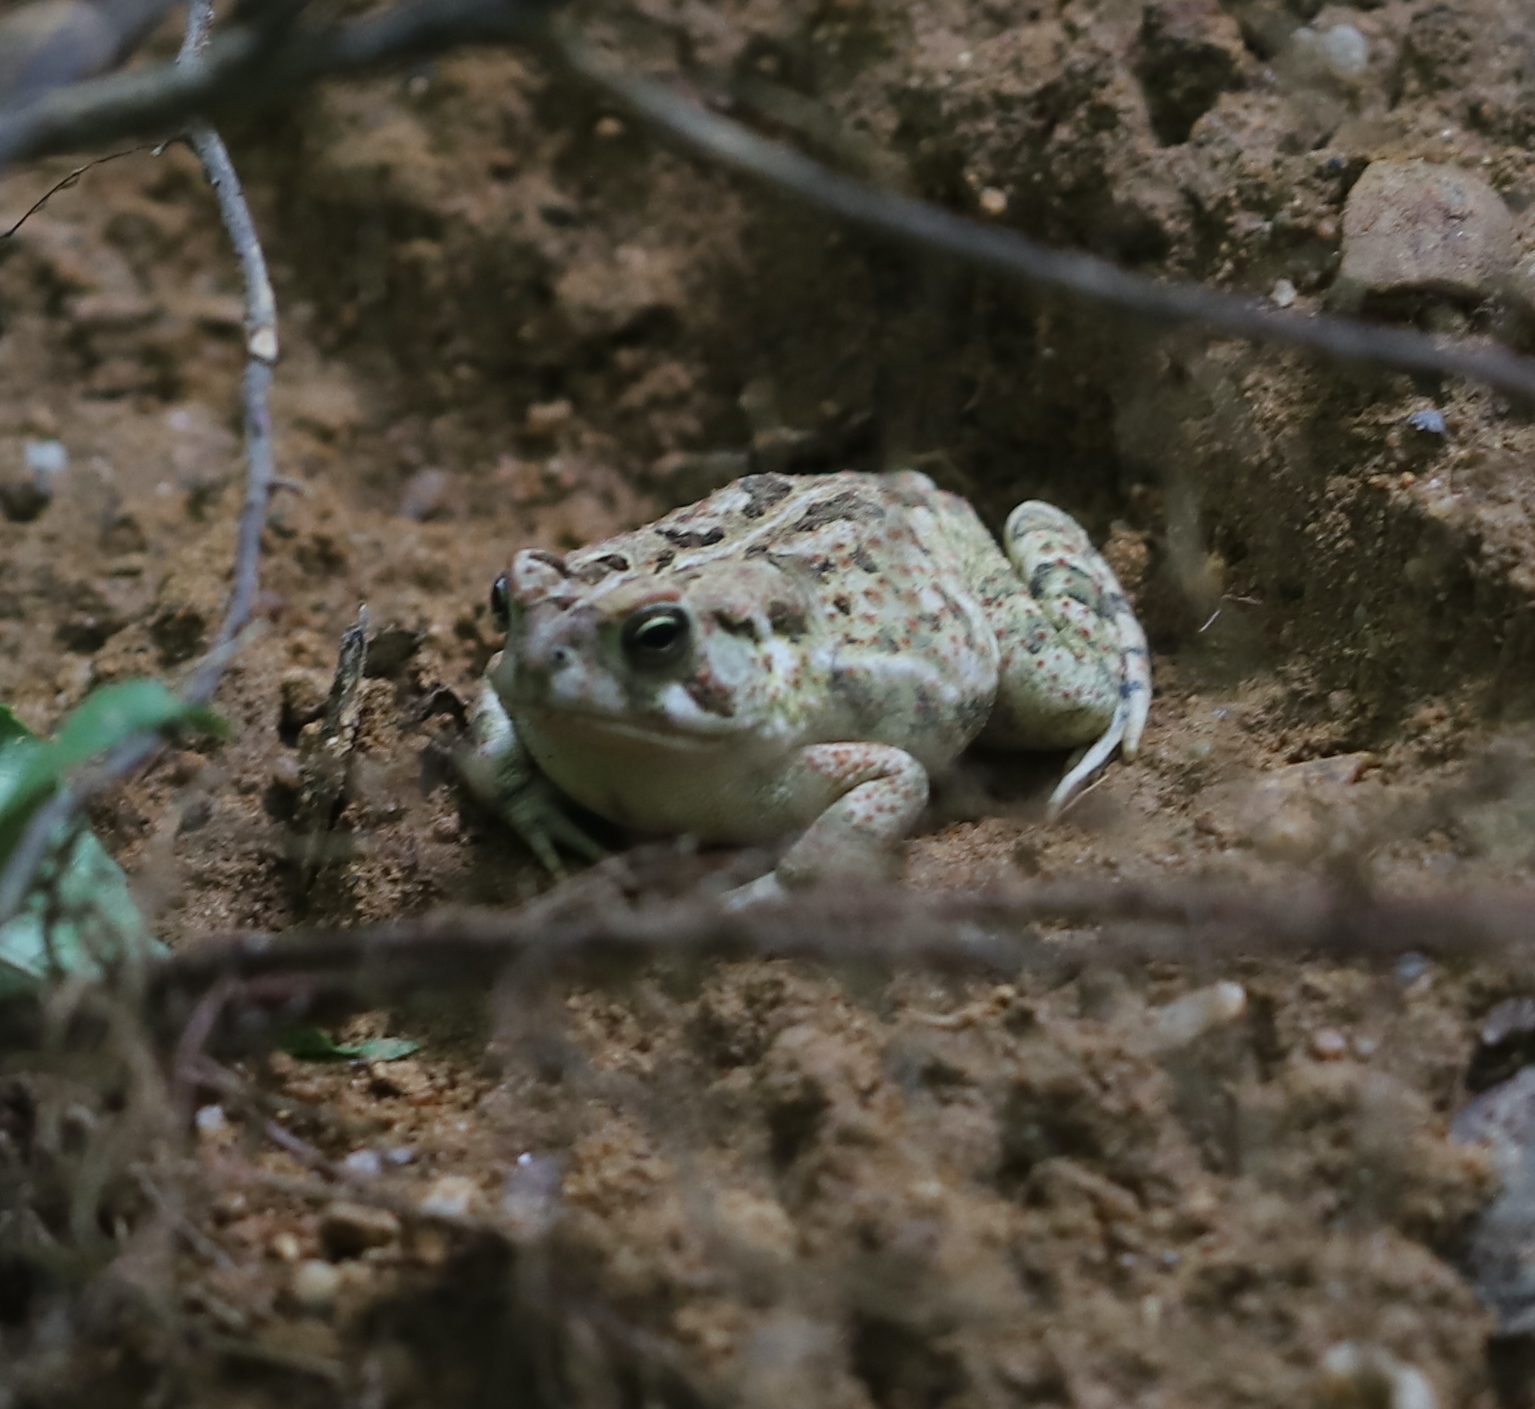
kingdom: Animalia
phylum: Chordata
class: Amphibia
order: Anura
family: Bufonidae
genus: Anaxyrus
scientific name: Anaxyrus fowleri
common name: Fowler's toad
